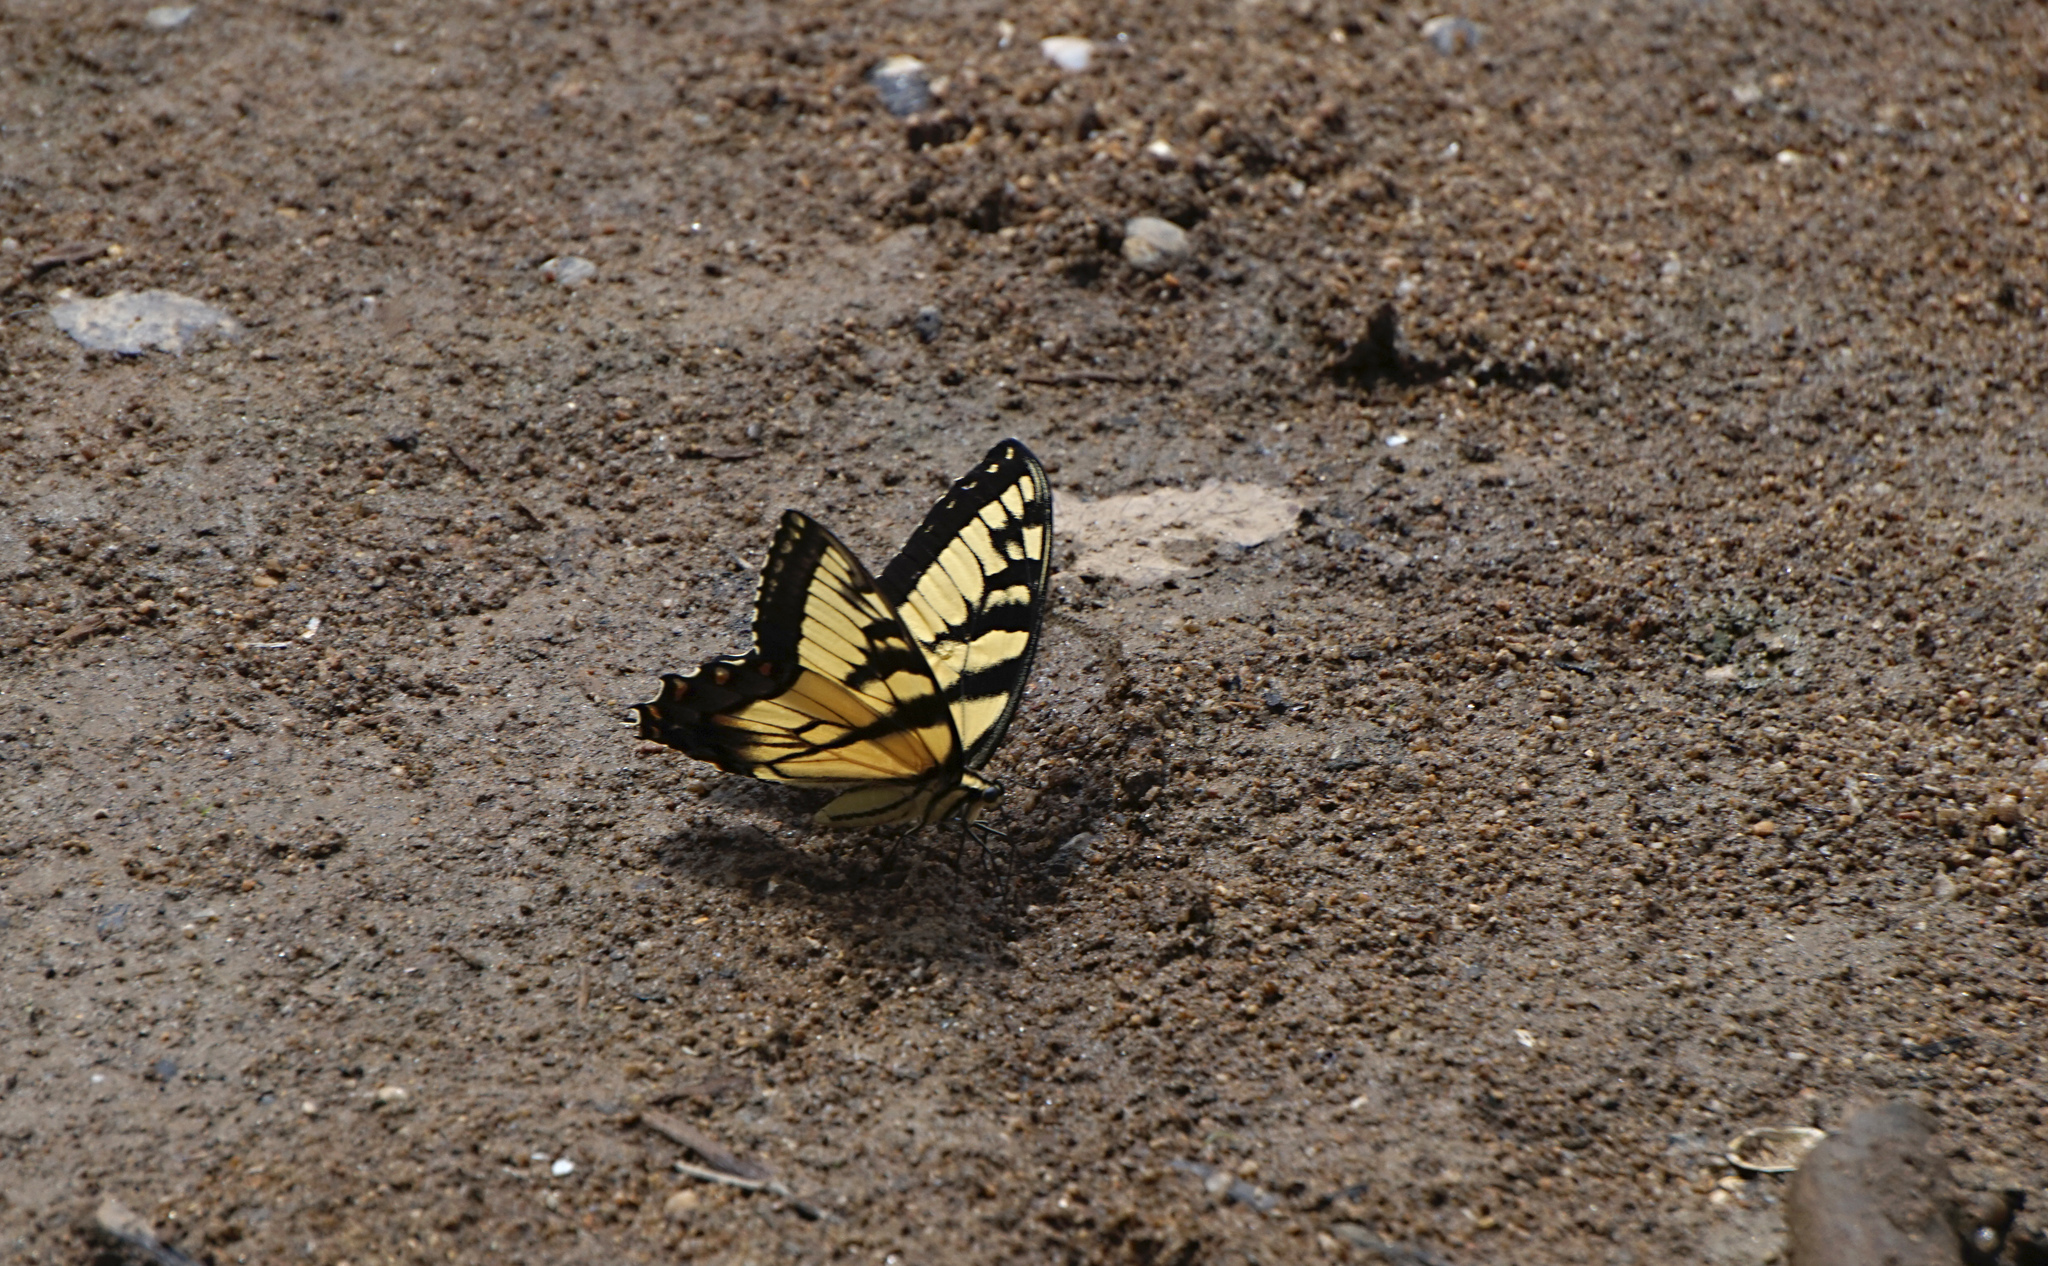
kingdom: Animalia
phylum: Arthropoda
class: Insecta
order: Lepidoptera
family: Papilionidae
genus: Papilio
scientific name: Papilio glaucus
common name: Tiger swallowtail
